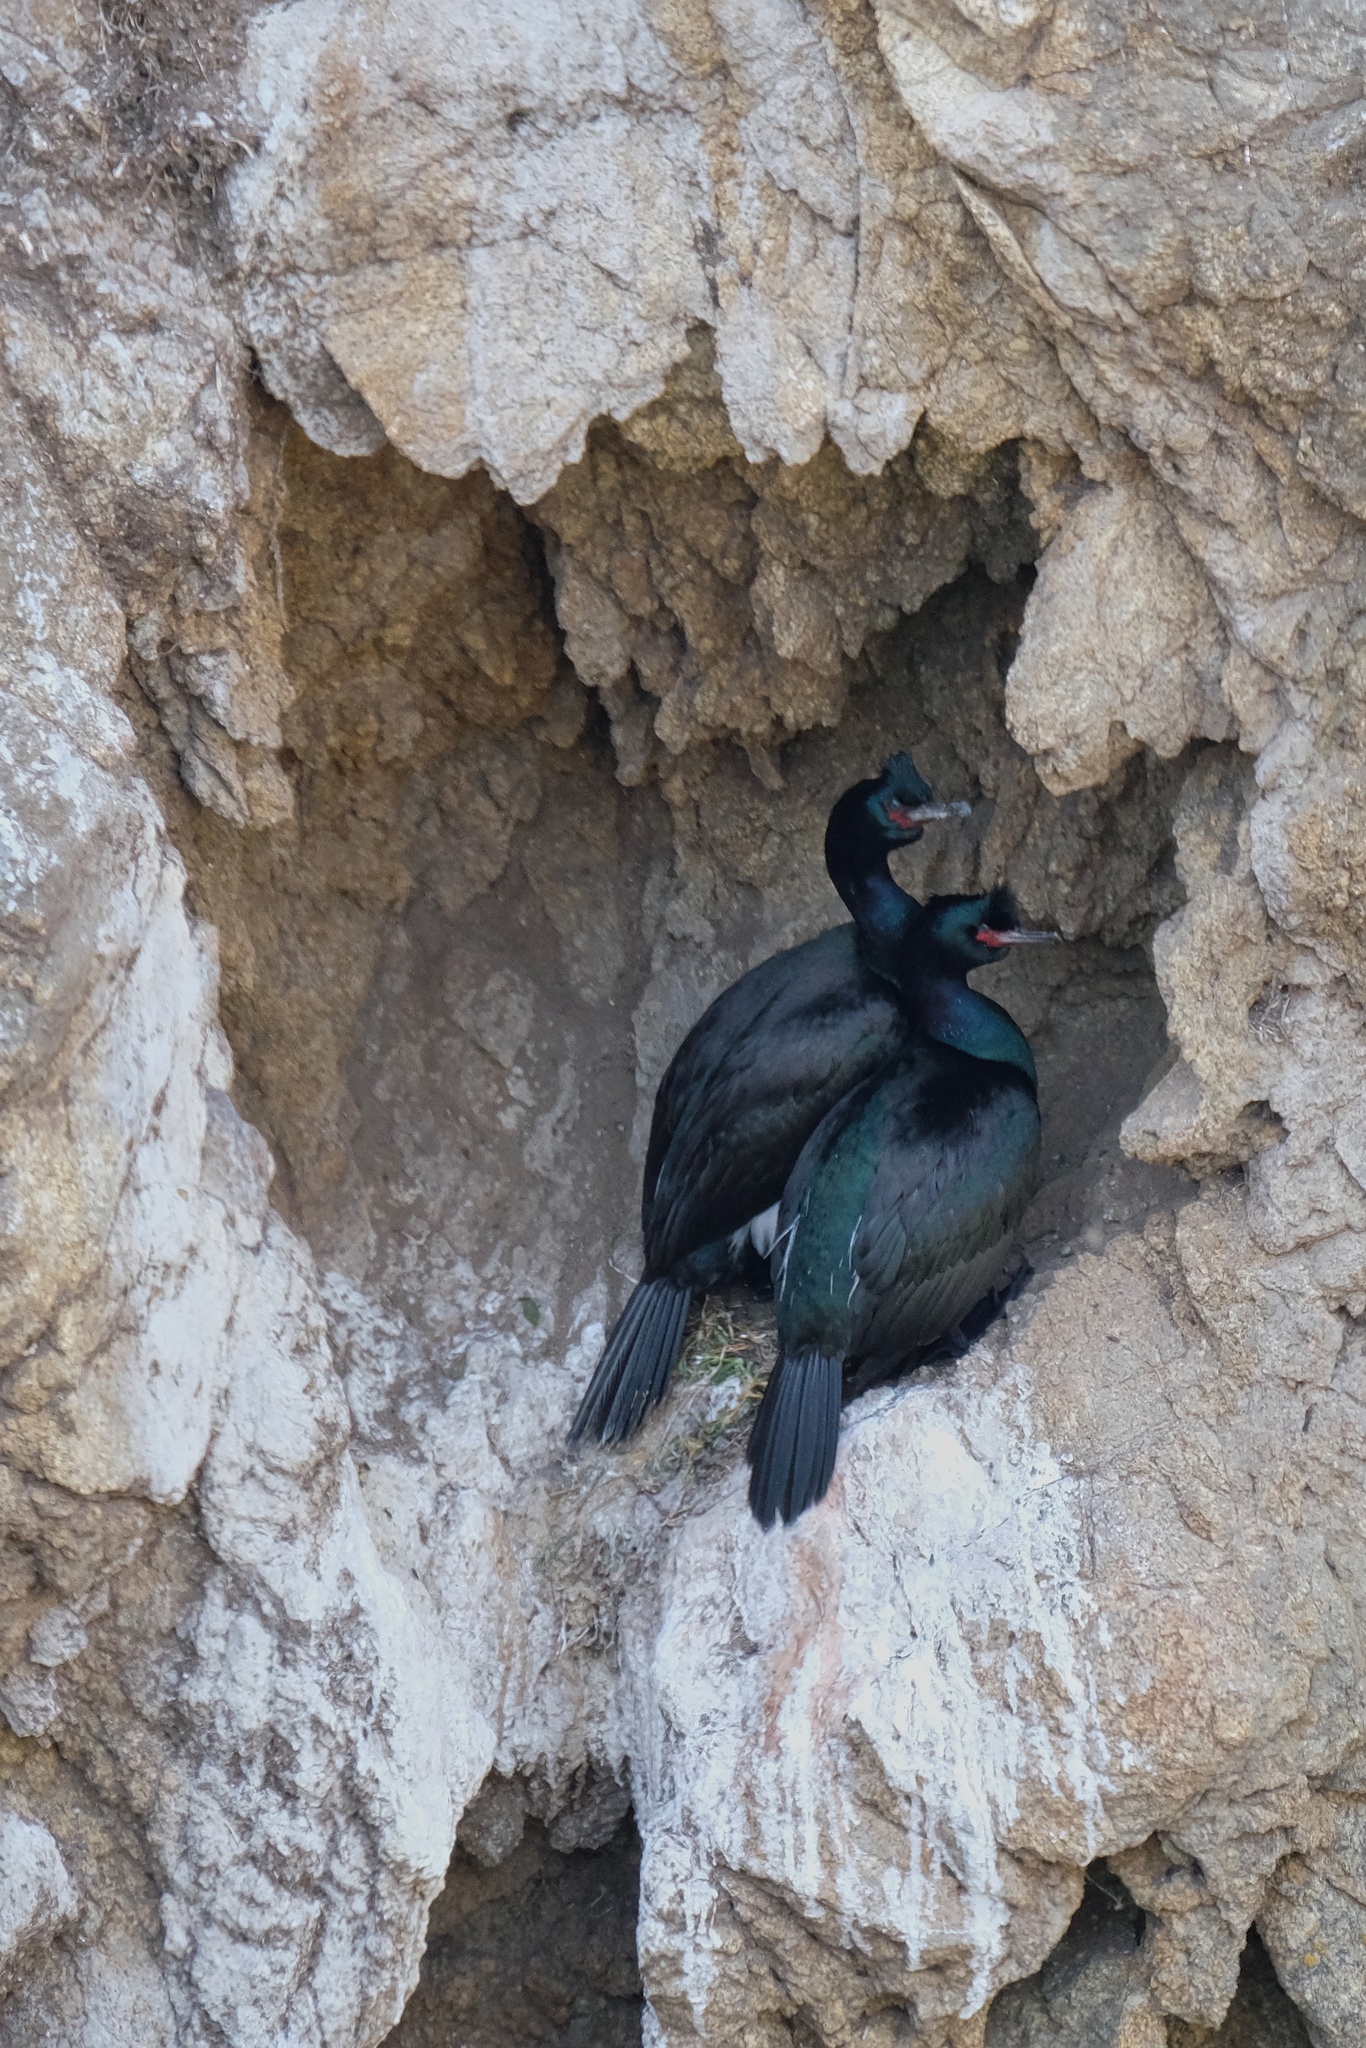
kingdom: Animalia
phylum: Chordata
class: Aves
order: Suliformes
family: Phalacrocoracidae
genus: Phalacrocorax
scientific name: Phalacrocorax pelagicus
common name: Pelagic cormorant
